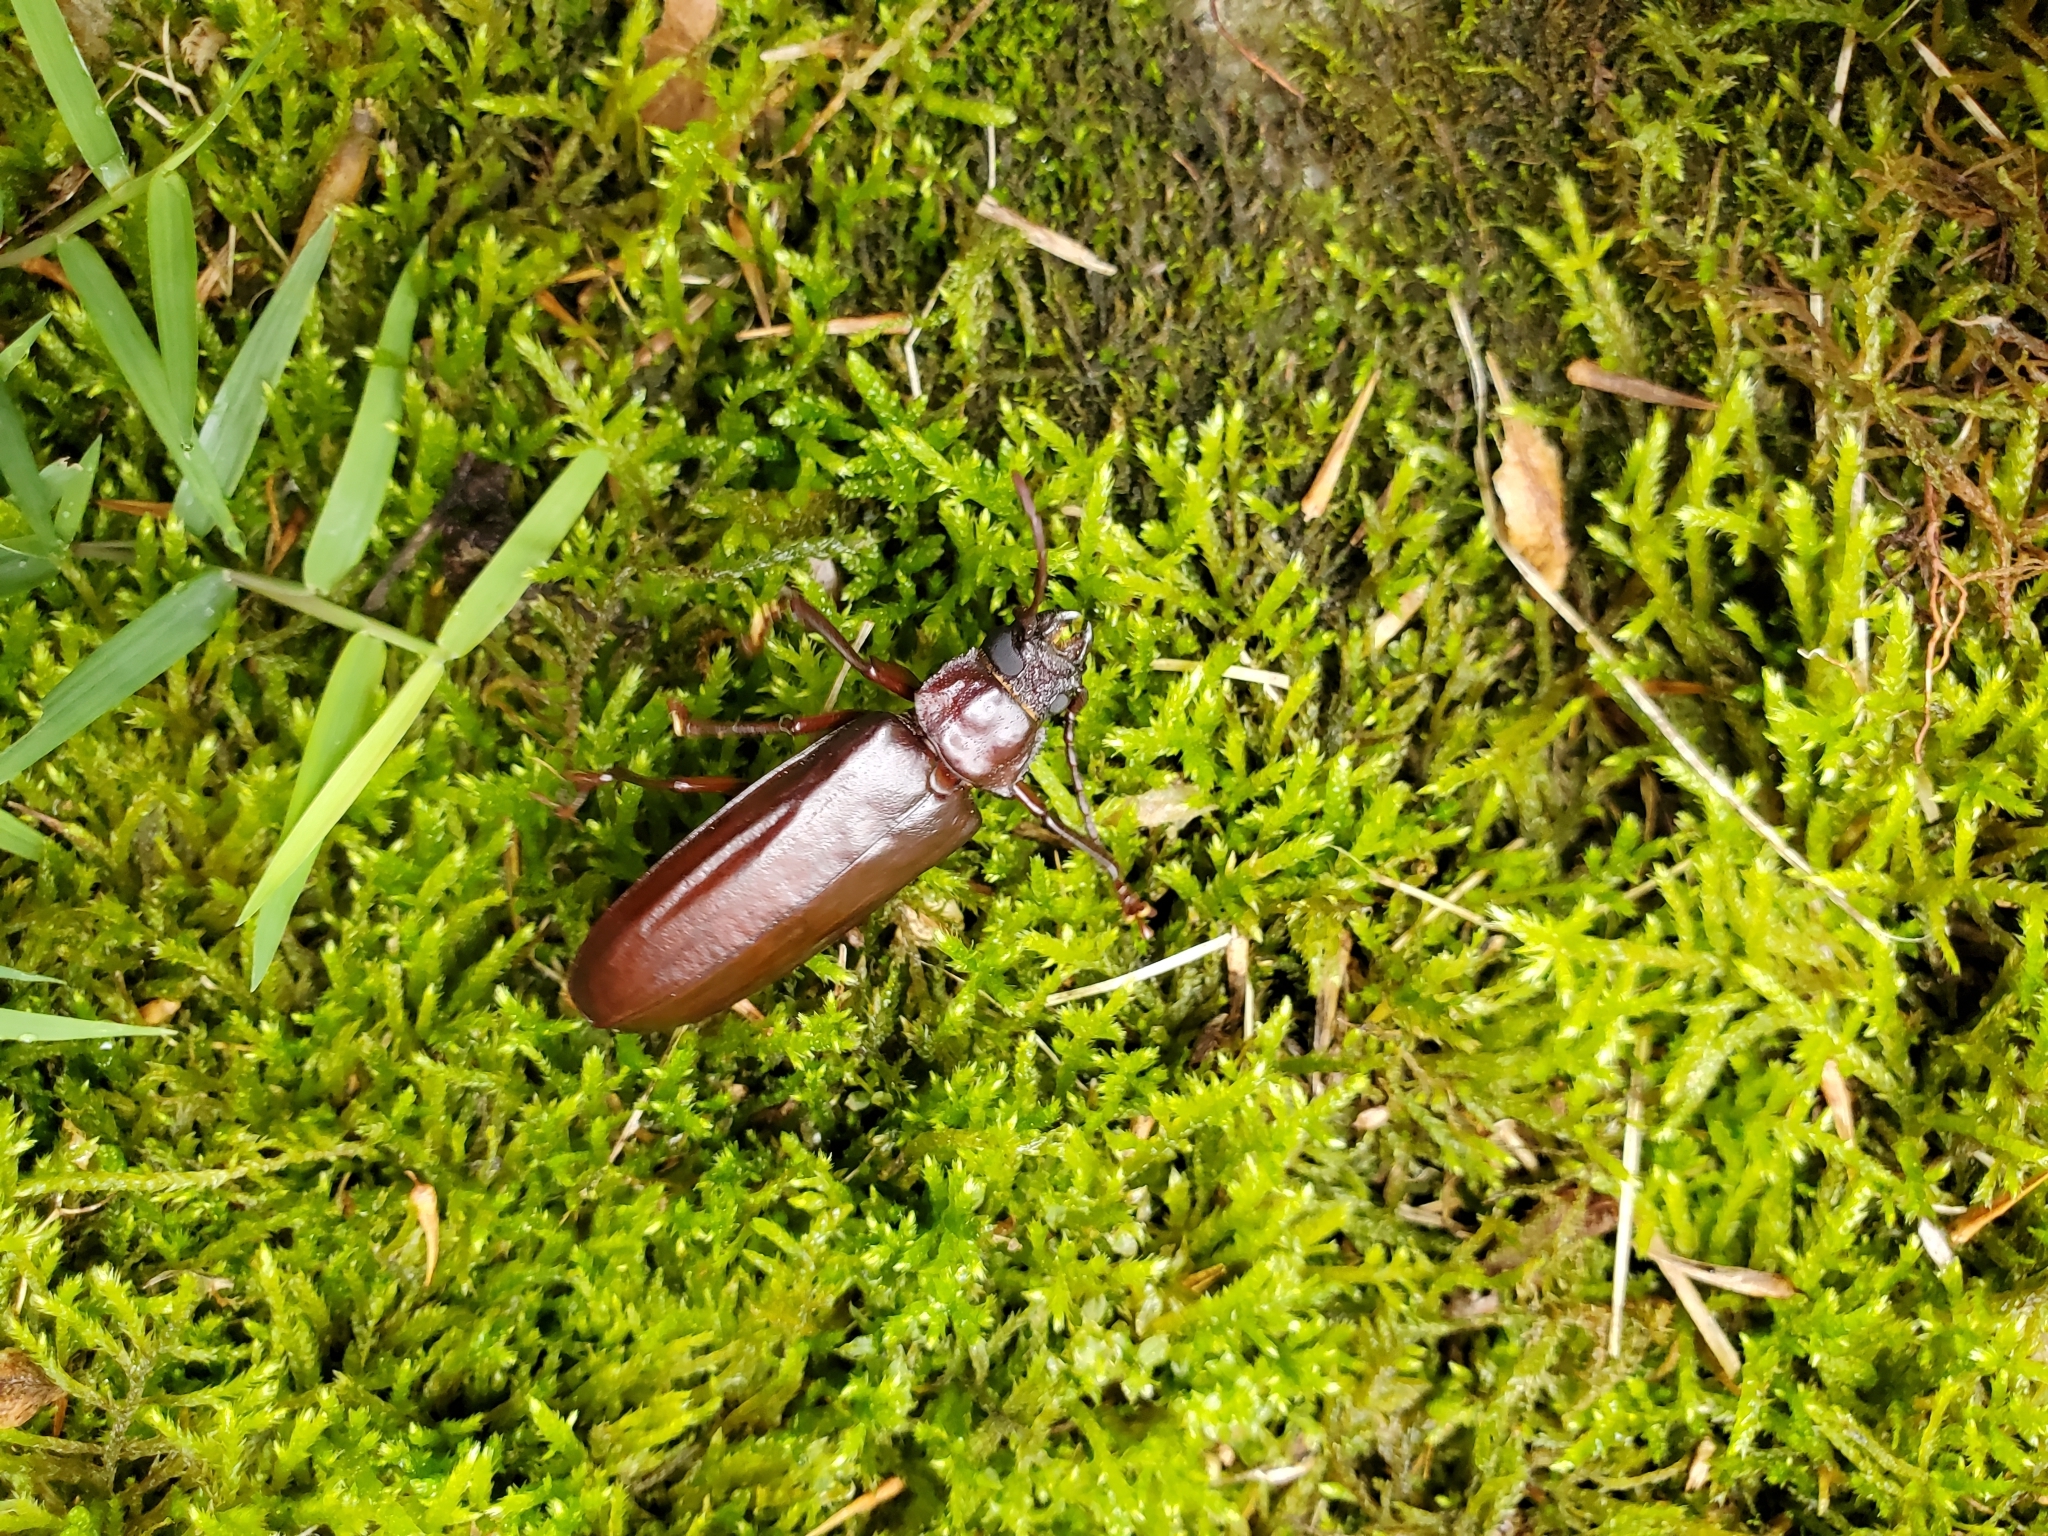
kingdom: Animalia
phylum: Arthropoda
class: Insecta
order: Coleoptera
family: Cerambycidae
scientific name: Cerambycidae
